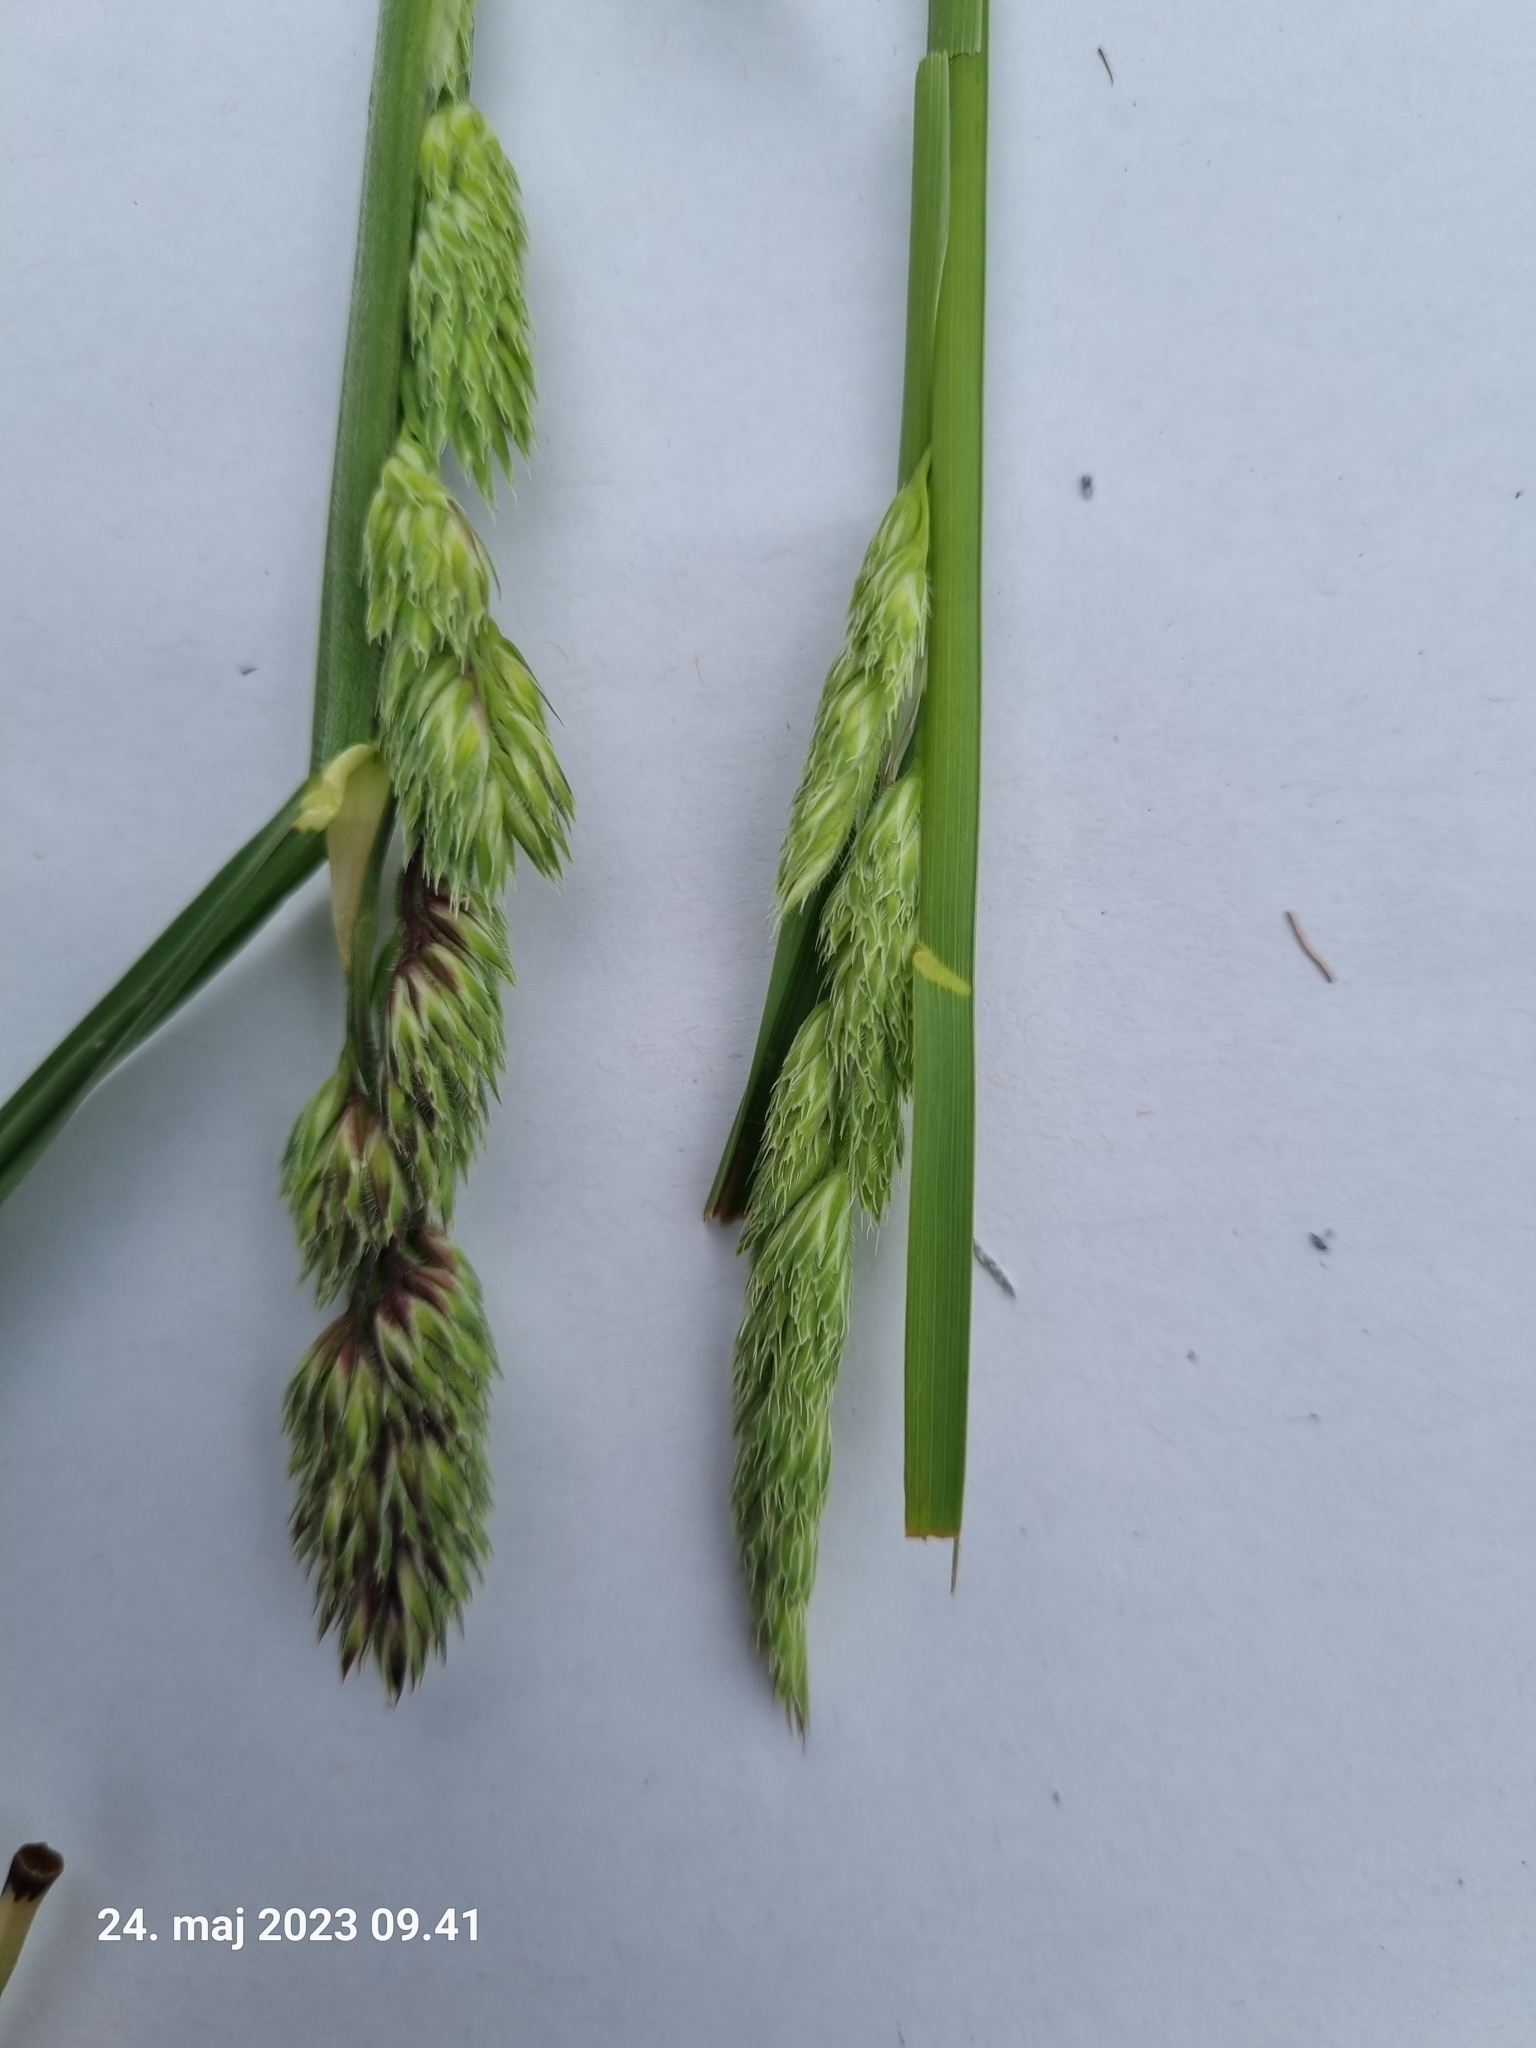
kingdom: Plantae
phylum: Tracheophyta
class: Liliopsida
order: Poales
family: Poaceae
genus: Dactylis
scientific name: Dactylis glomerata
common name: Orchardgrass
